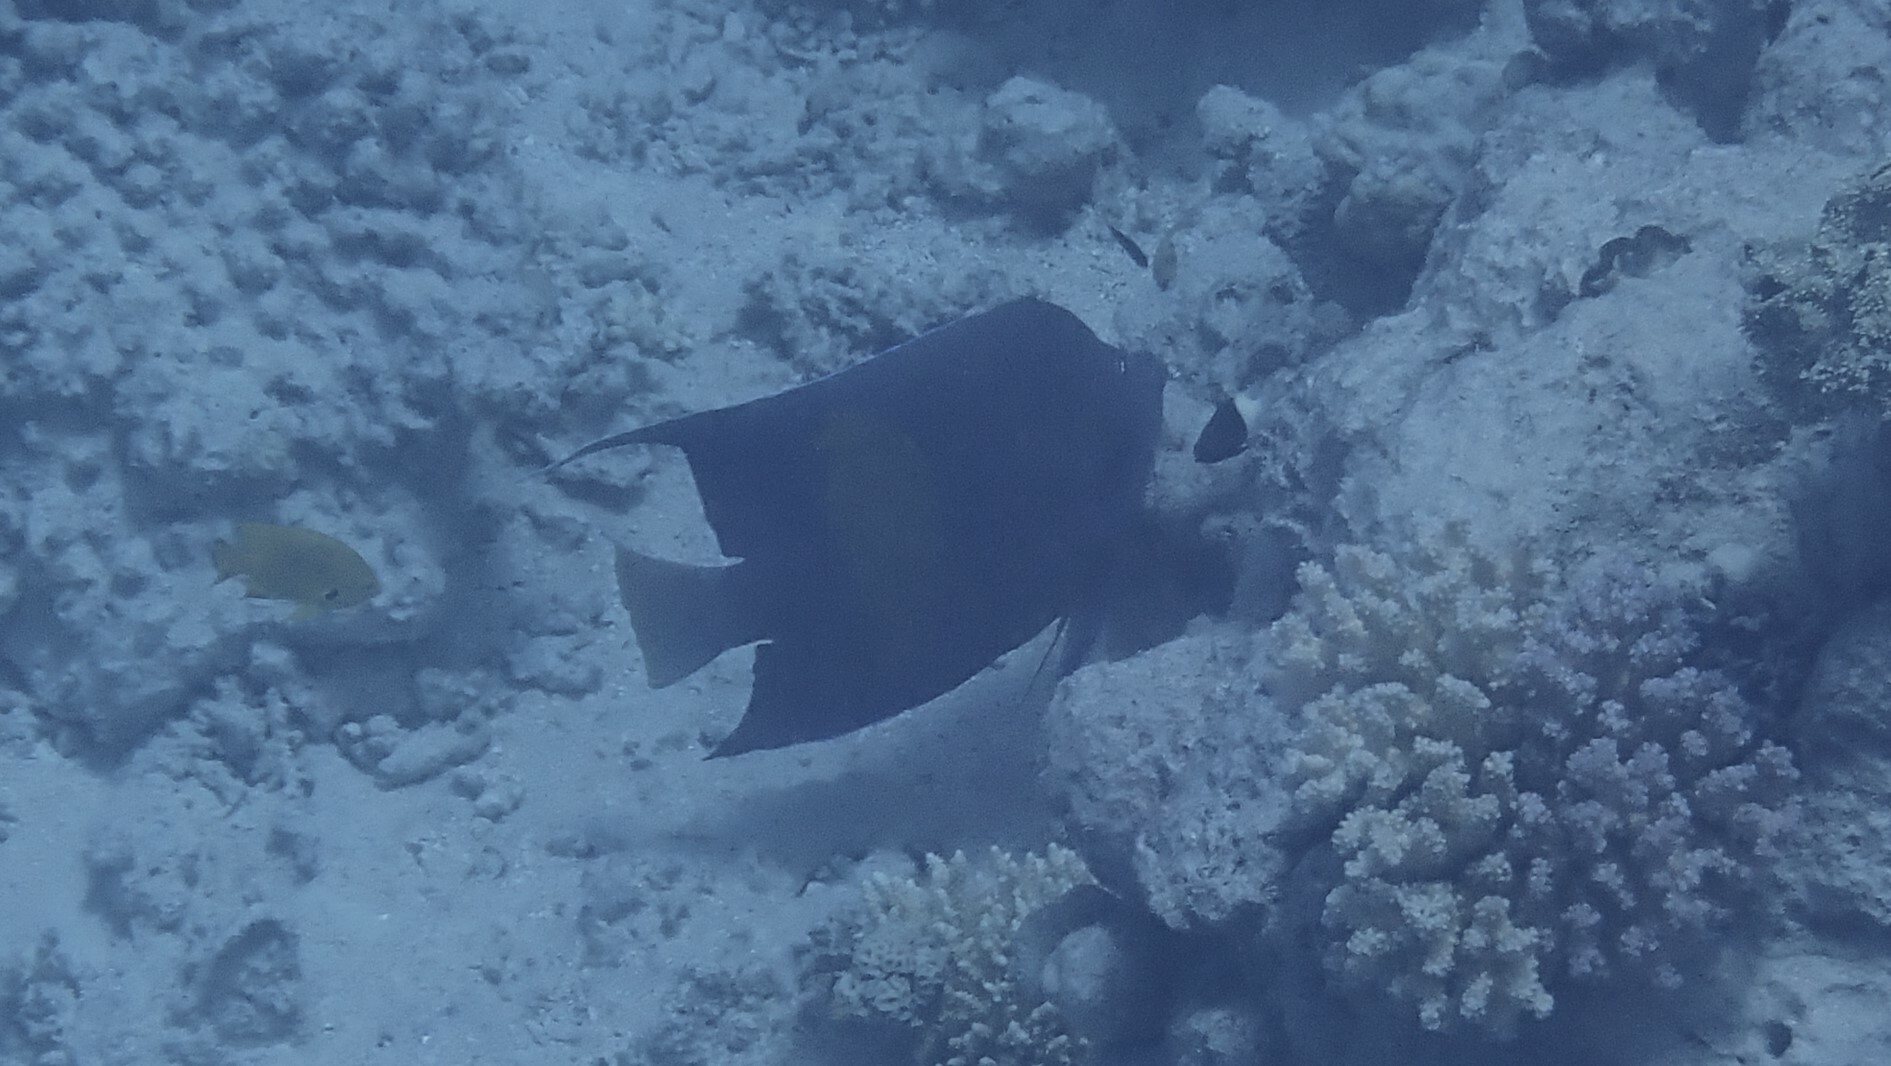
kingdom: Animalia
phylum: Chordata
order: Perciformes
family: Pomacanthidae
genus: Pomacanthus
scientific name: Pomacanthus maculosus
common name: Yellowbar angelfish
